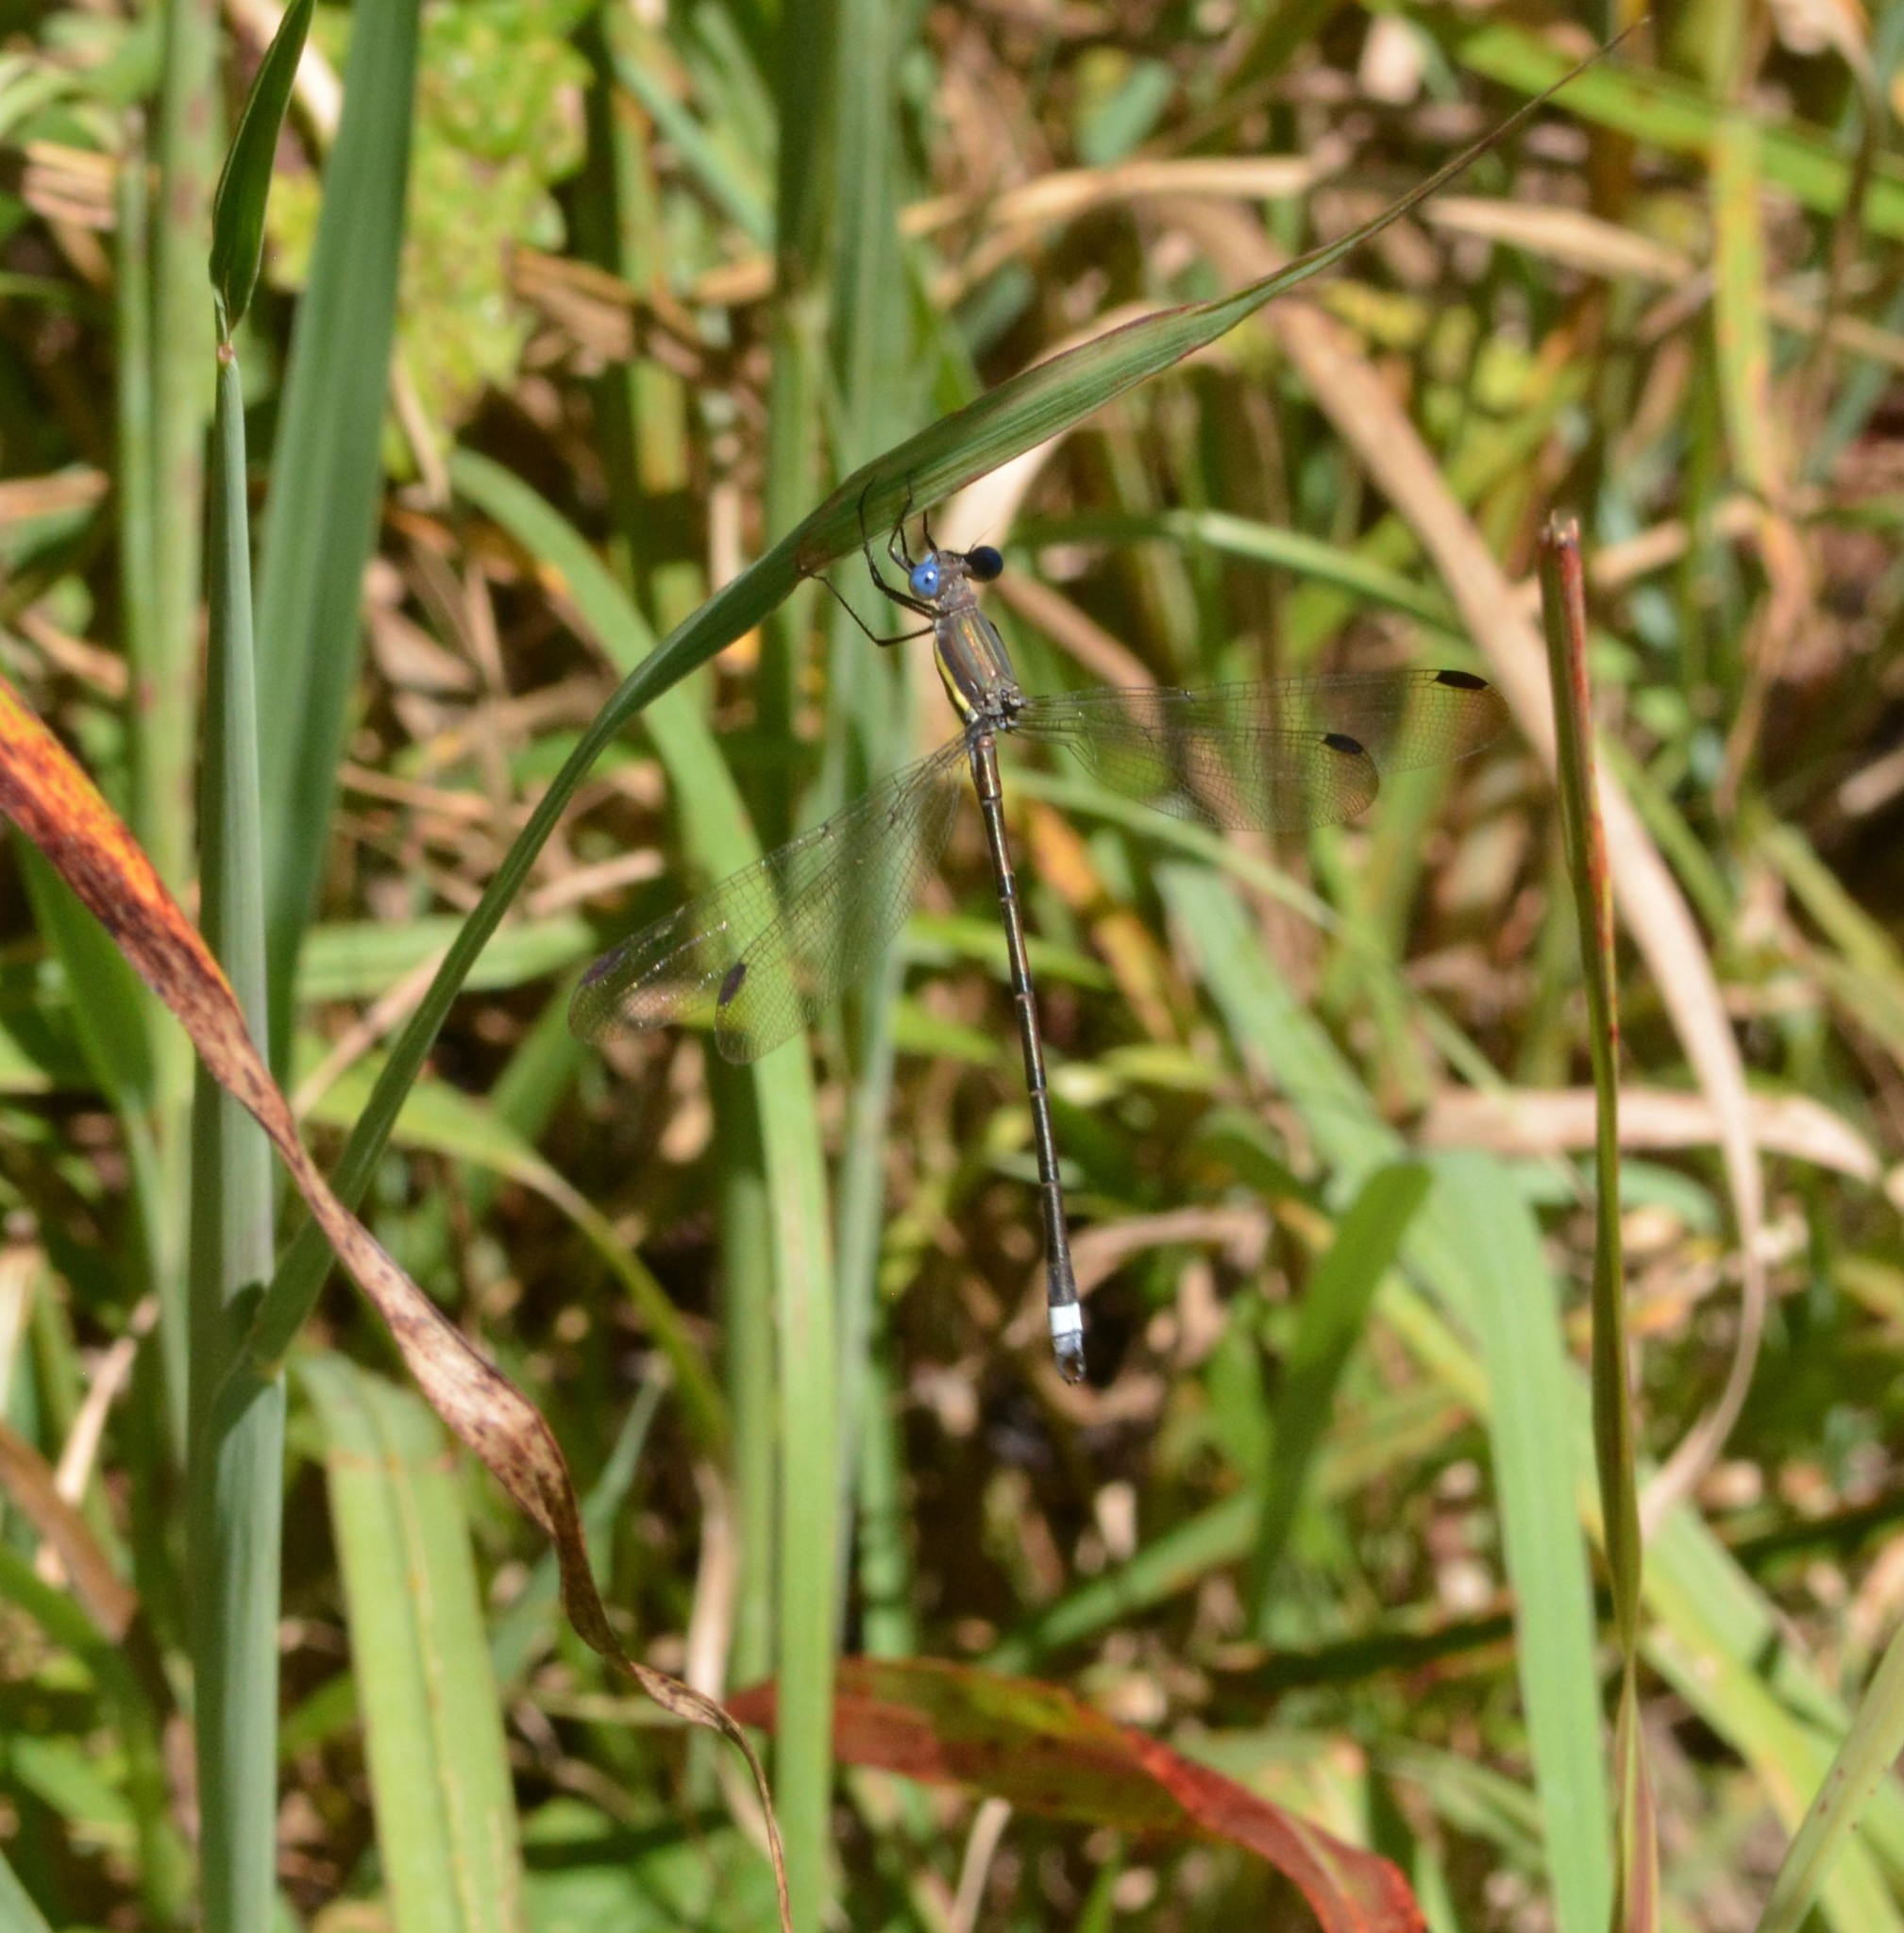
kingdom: Animalia
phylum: Arthropoda
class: Insecta
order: Odonata
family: Lestidae
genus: Archilestes
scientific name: Archilestes grandis
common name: Great spreadwing
